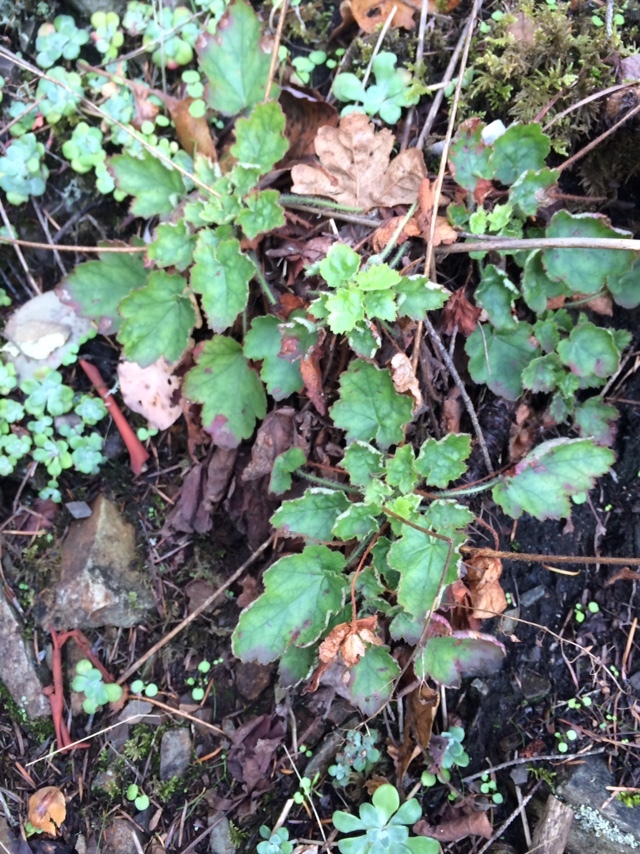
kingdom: Plantae
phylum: Tracheophyta
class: Magnoliopsida
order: Saxifragales
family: Saxifragaceae
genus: Heuchera
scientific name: Heuchera micrantha
